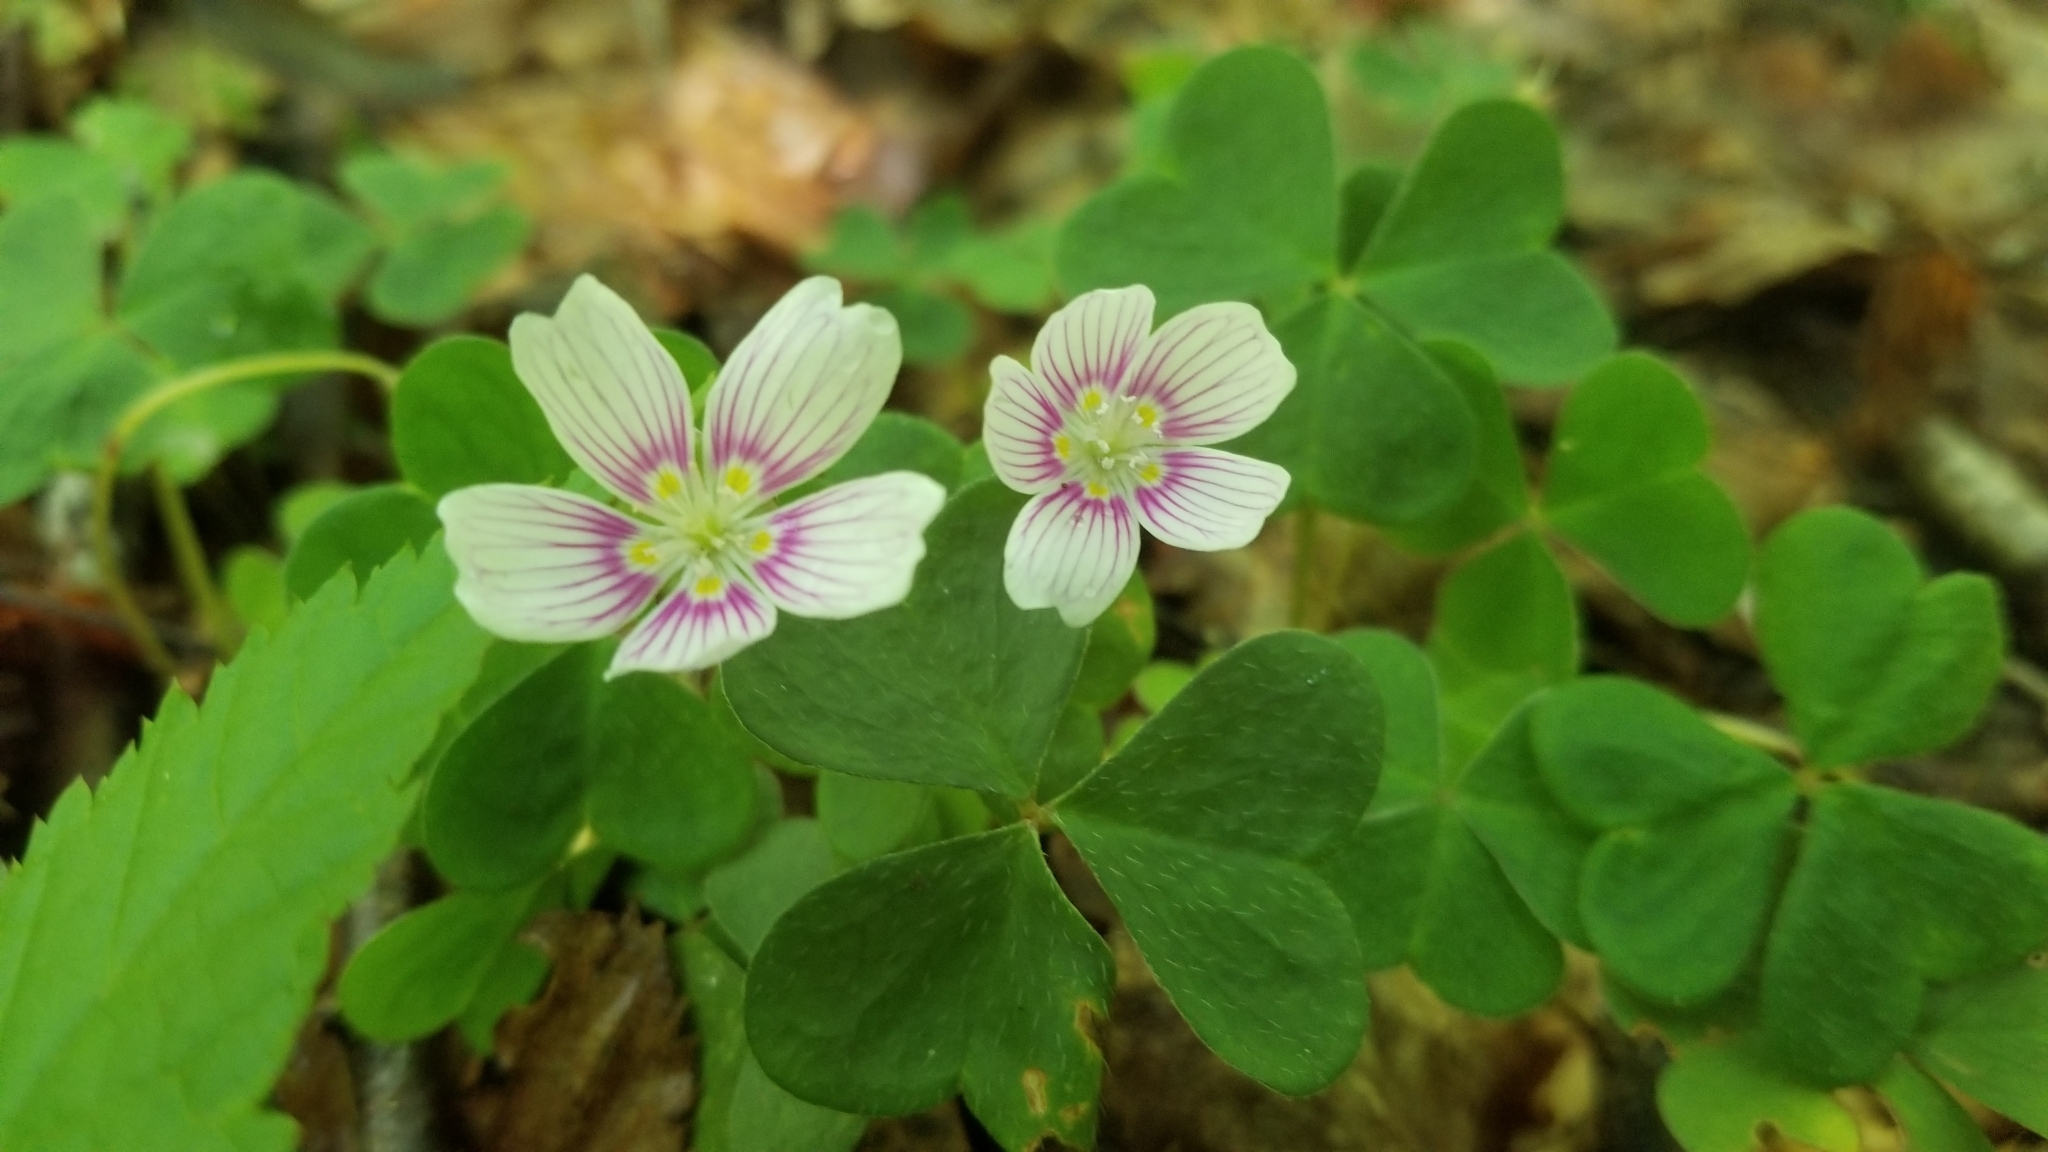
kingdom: Plantae
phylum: Tracheophyta
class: Magnoliopsida
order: Oxalidales
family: Oxalidaceae
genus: Oxalis
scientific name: Oxalis montana
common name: American wood-sorrel
